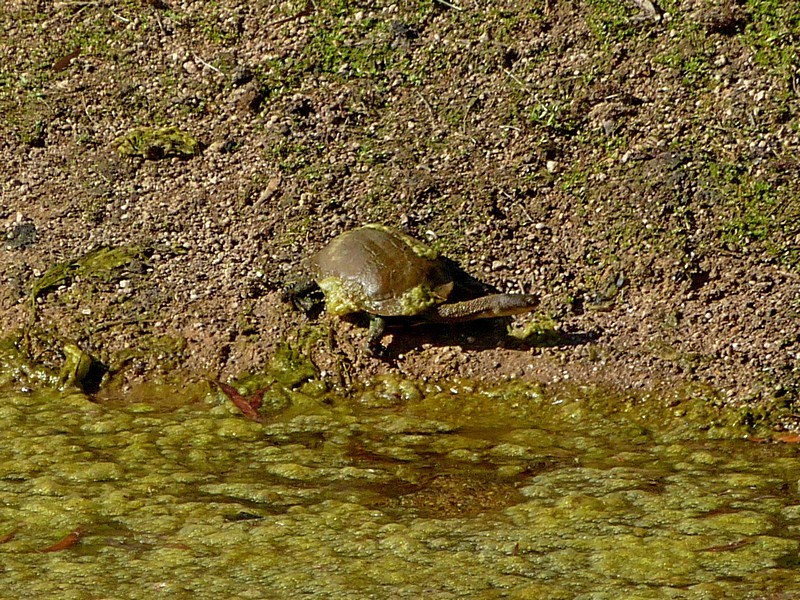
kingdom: Animalia
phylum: Chordata
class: Testudines
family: Chelidae
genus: Chelodina
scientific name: Chelodina longicollis
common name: Eastern snake-necked turtle
